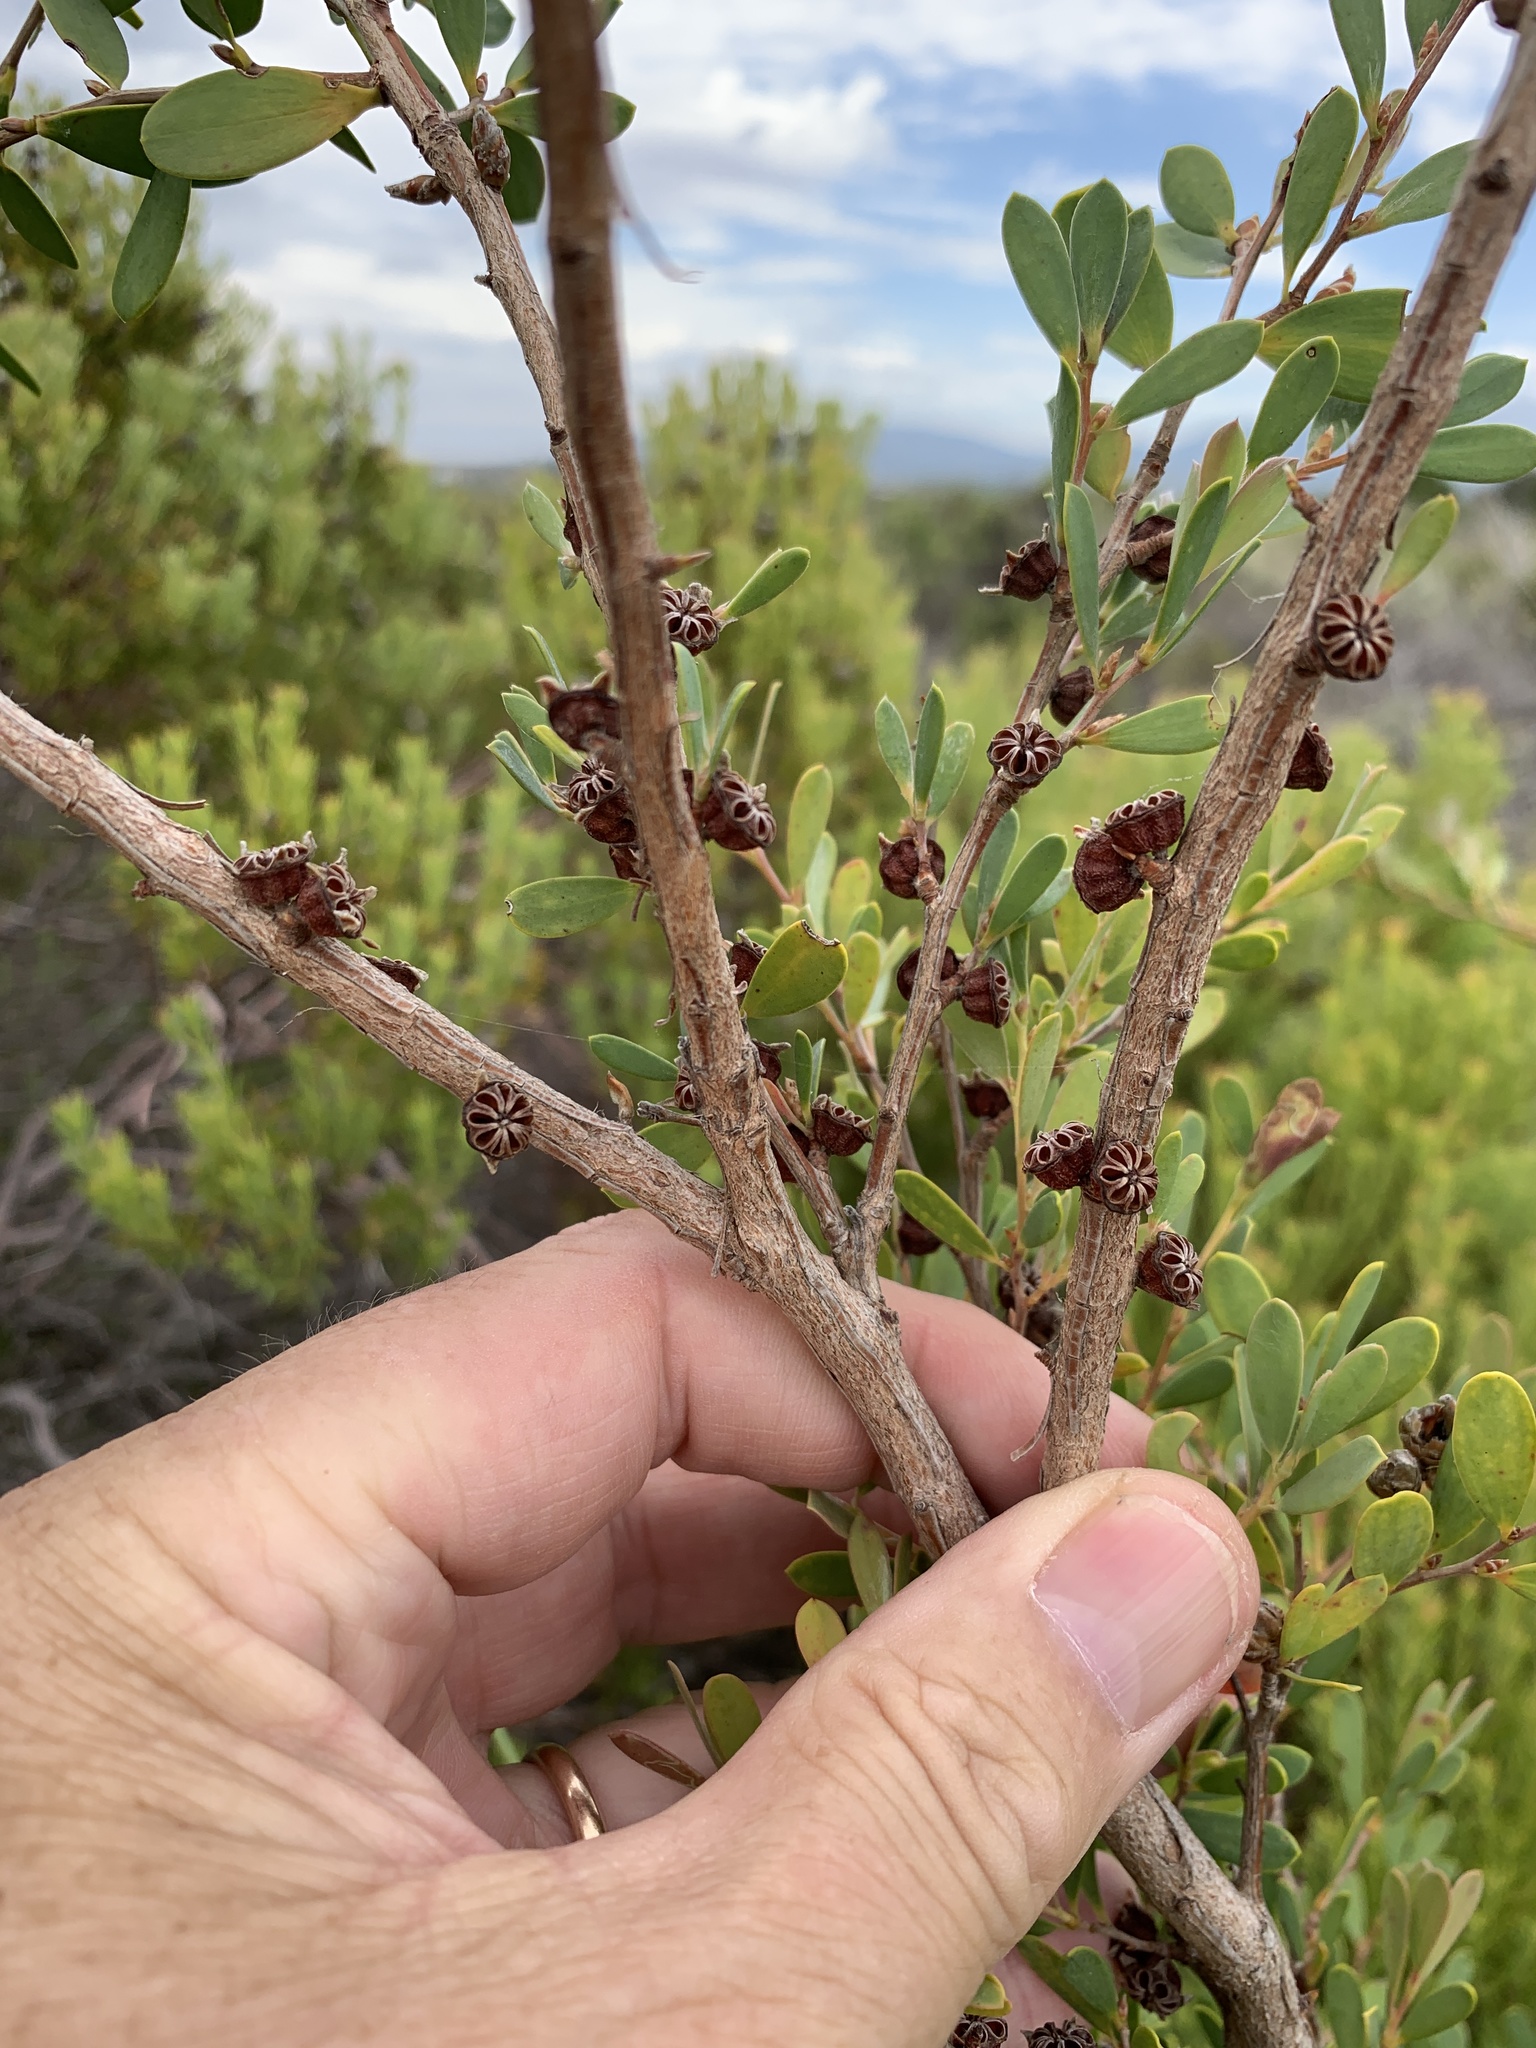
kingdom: Plantae
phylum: Tracheophyta
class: Magnoliopsida
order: Myrtales
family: Myrtaceae
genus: Leptospermum
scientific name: Leptospermum laevigatum
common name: Australian teatree
